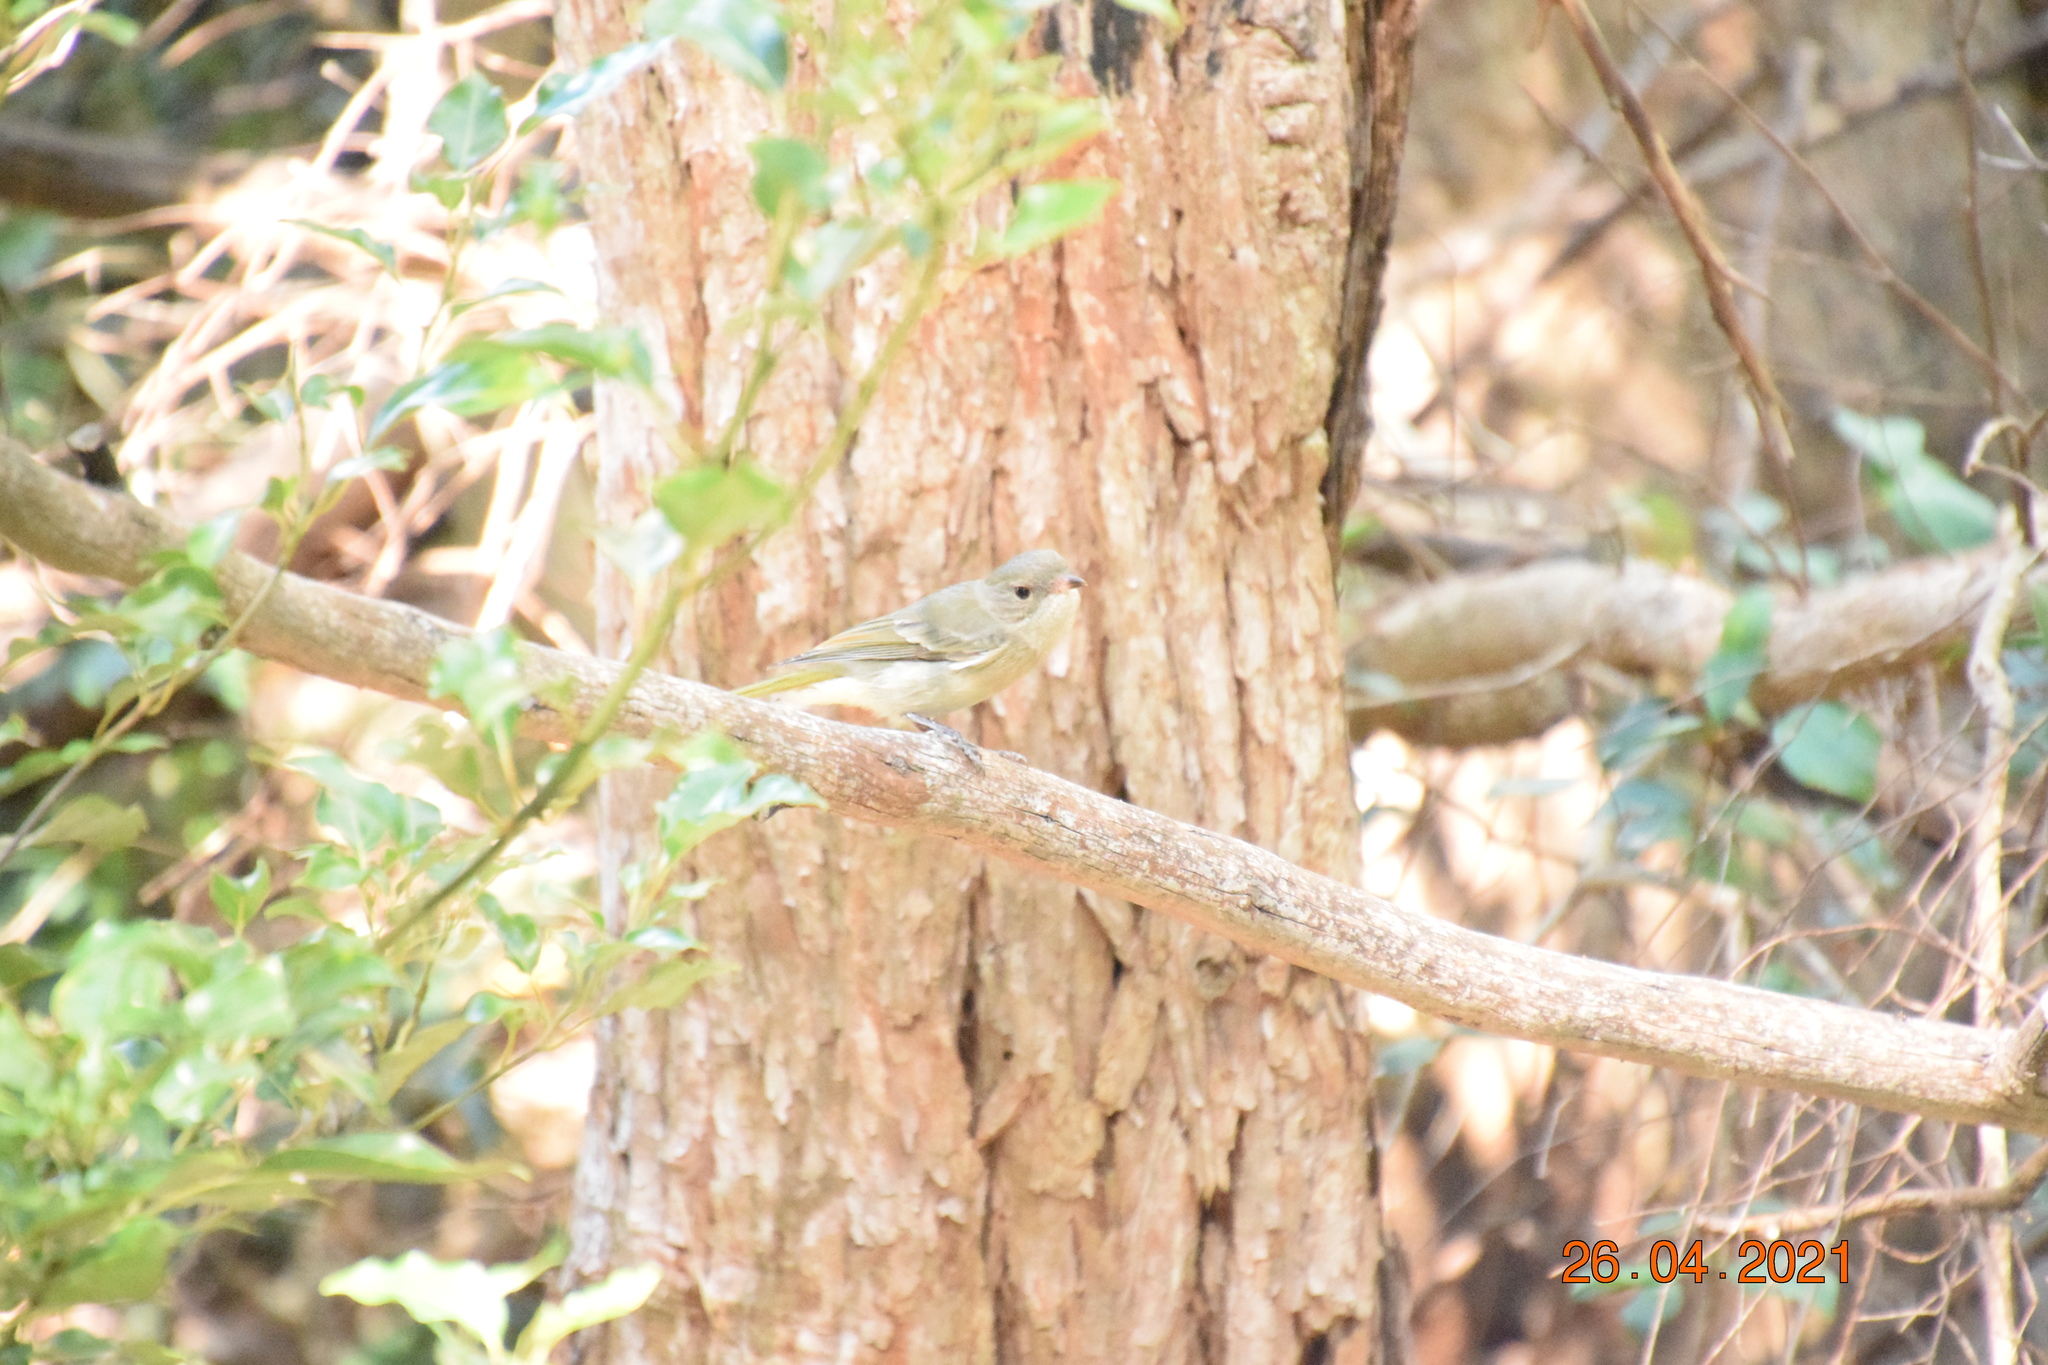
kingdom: Animalia
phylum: Chordata
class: Aves
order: Passeriformes
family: Pachycephalidae
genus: Pachycephala
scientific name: Pachycephala pectoralis
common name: Australian golden whistler
